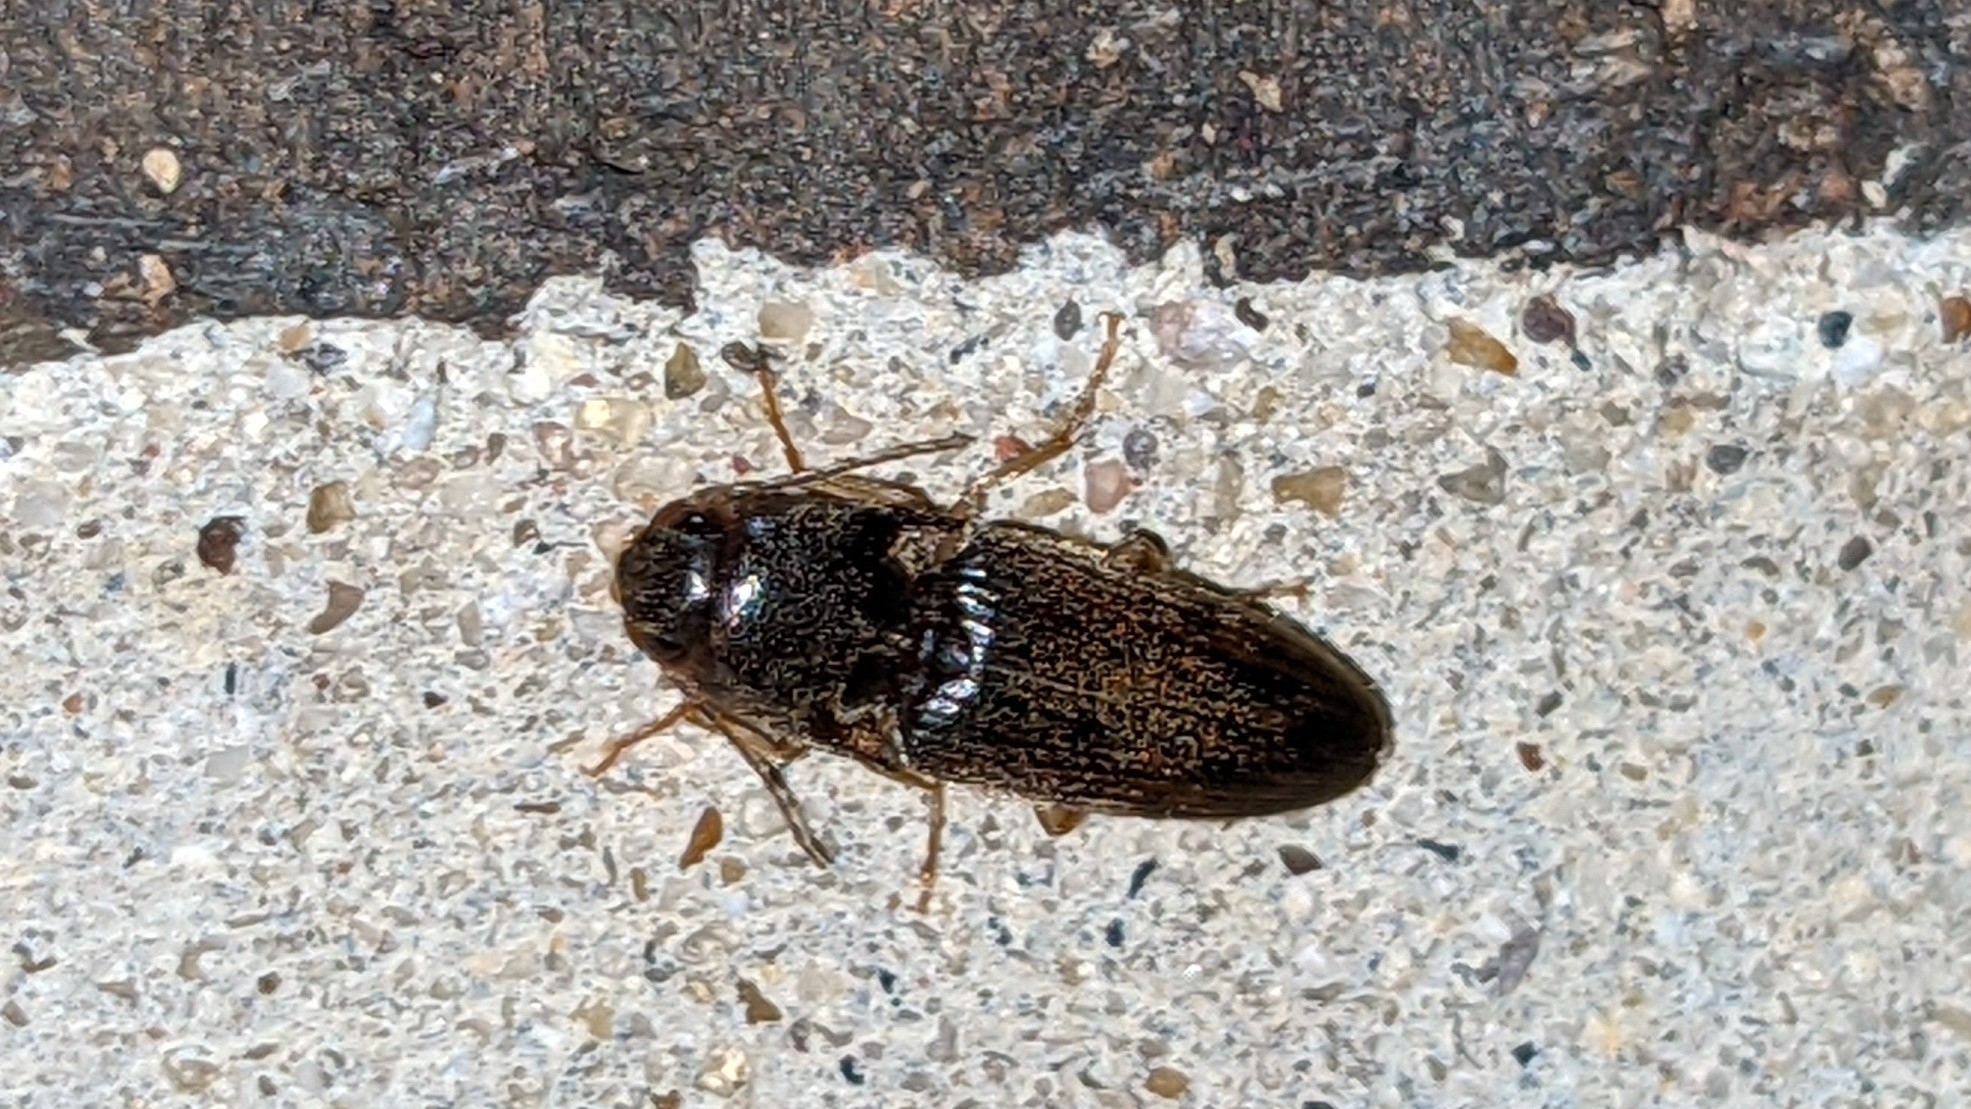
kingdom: Animalia
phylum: Arthropoda
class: Insecta
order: Coleoptera
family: Elateridae
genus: Monocrepidius
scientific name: Monocrepidius
